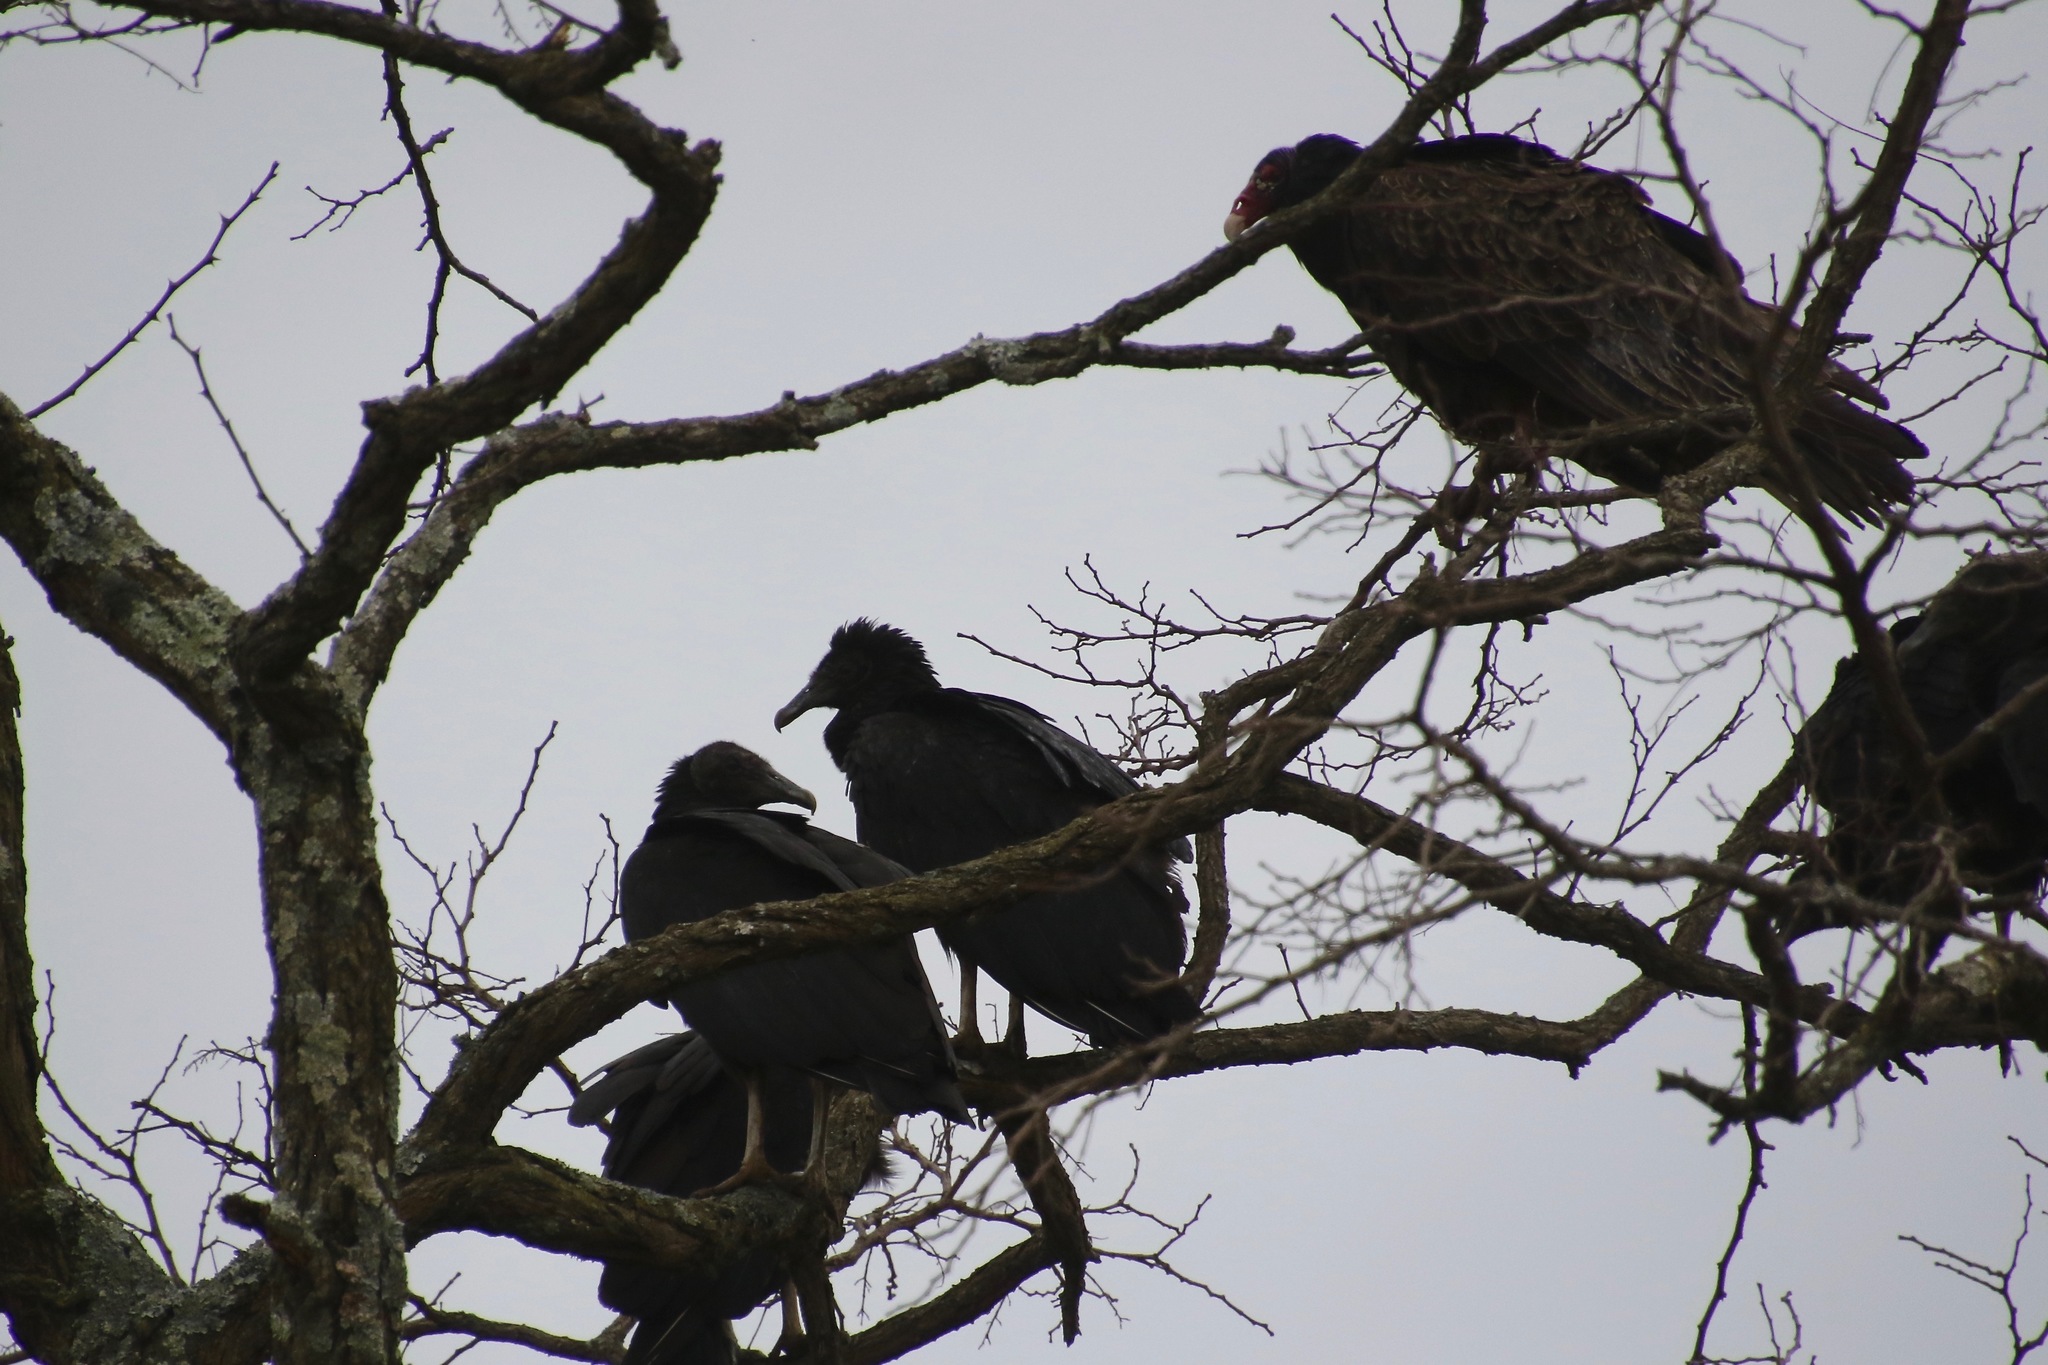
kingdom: Animalia
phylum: Chordata
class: Aves
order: Accipitriformes
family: Cathartidae
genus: Coragyps
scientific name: Coragyps atratus
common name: Black vulture
